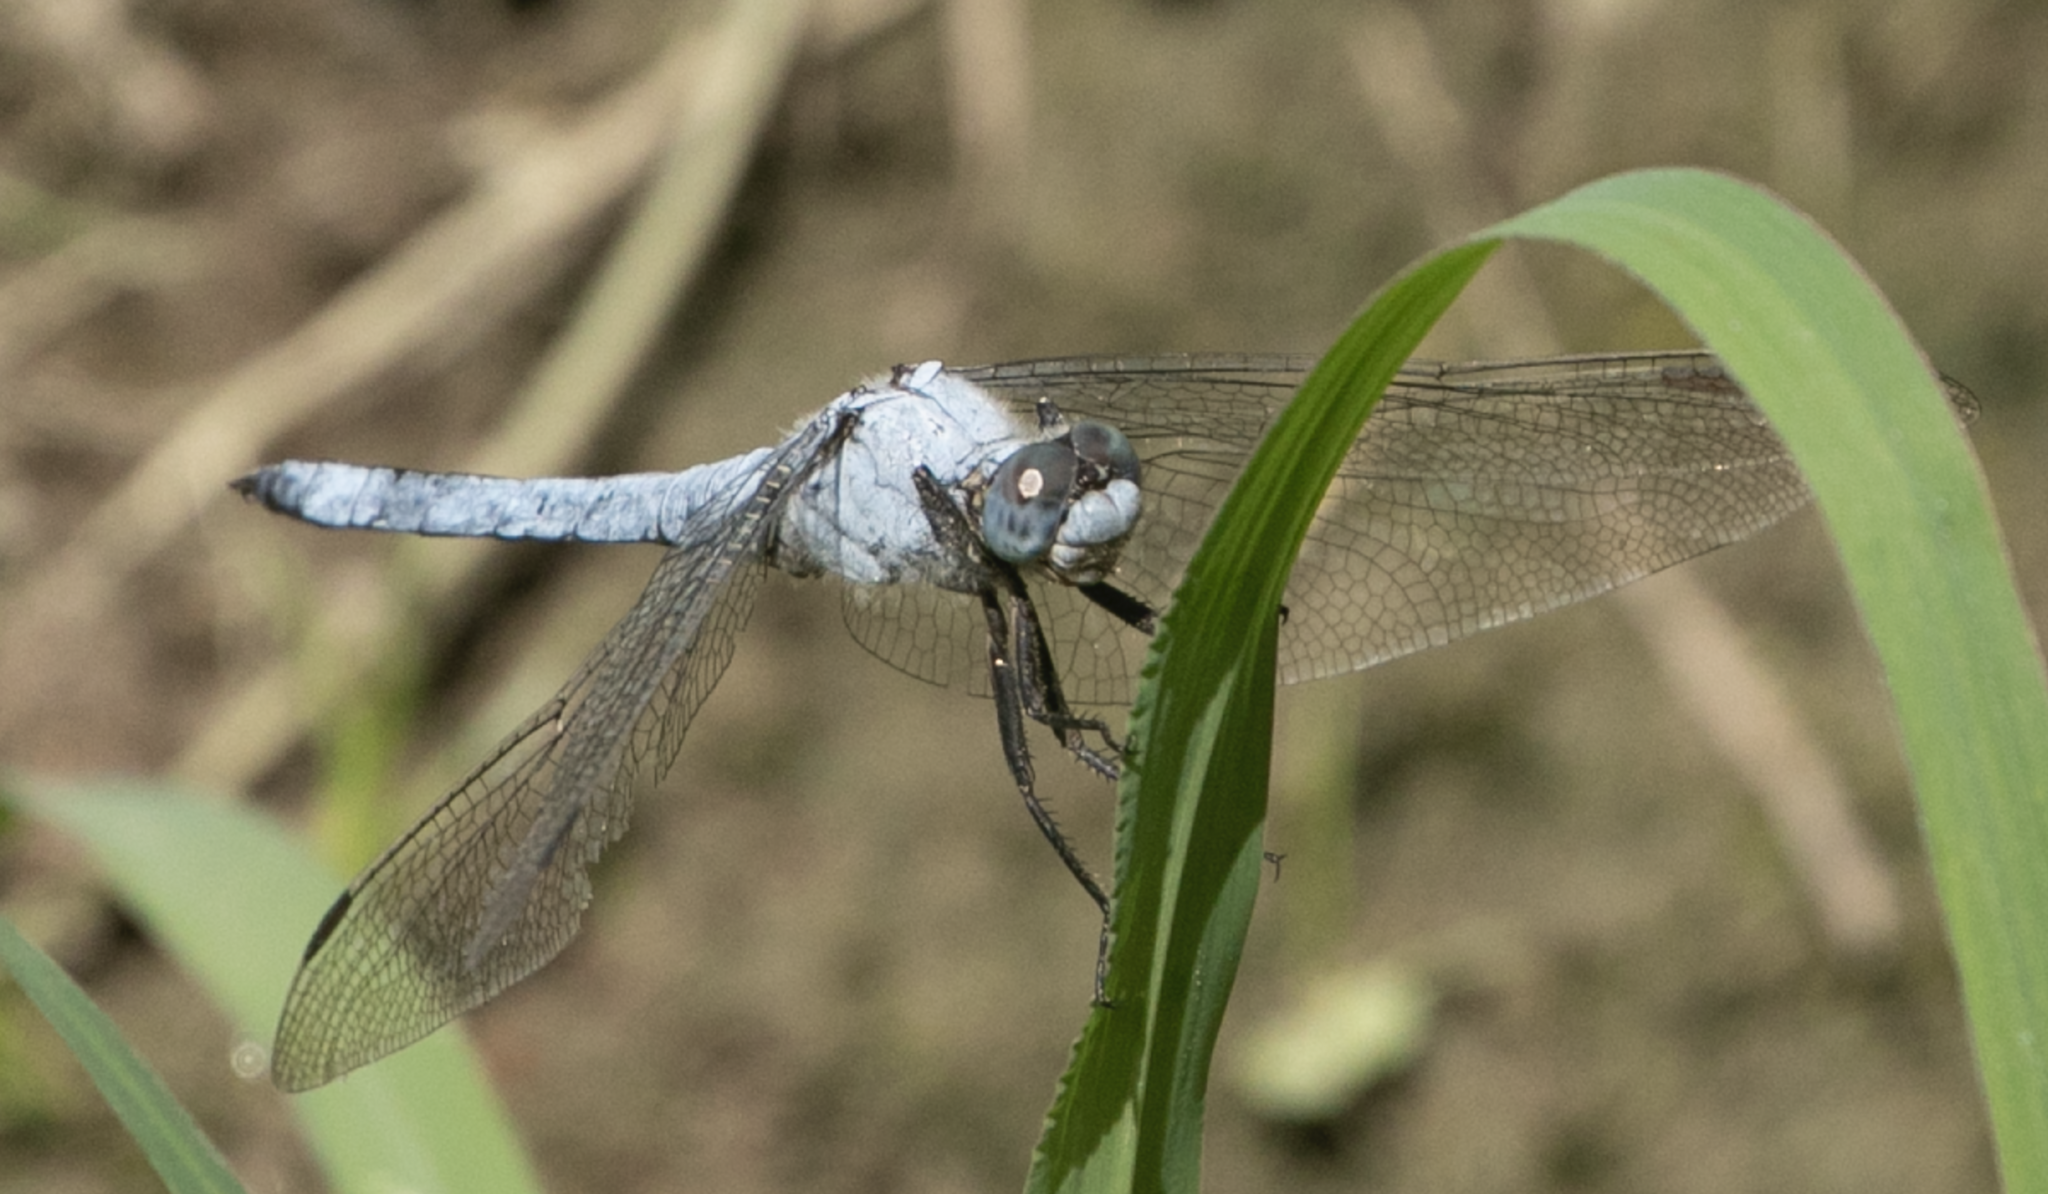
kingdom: Animalia
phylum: Arthropoda
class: Insecta
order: Odonata
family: Libellulidae
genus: Orthetrum
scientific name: Orthetrum brunneum
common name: Southern skimmer
